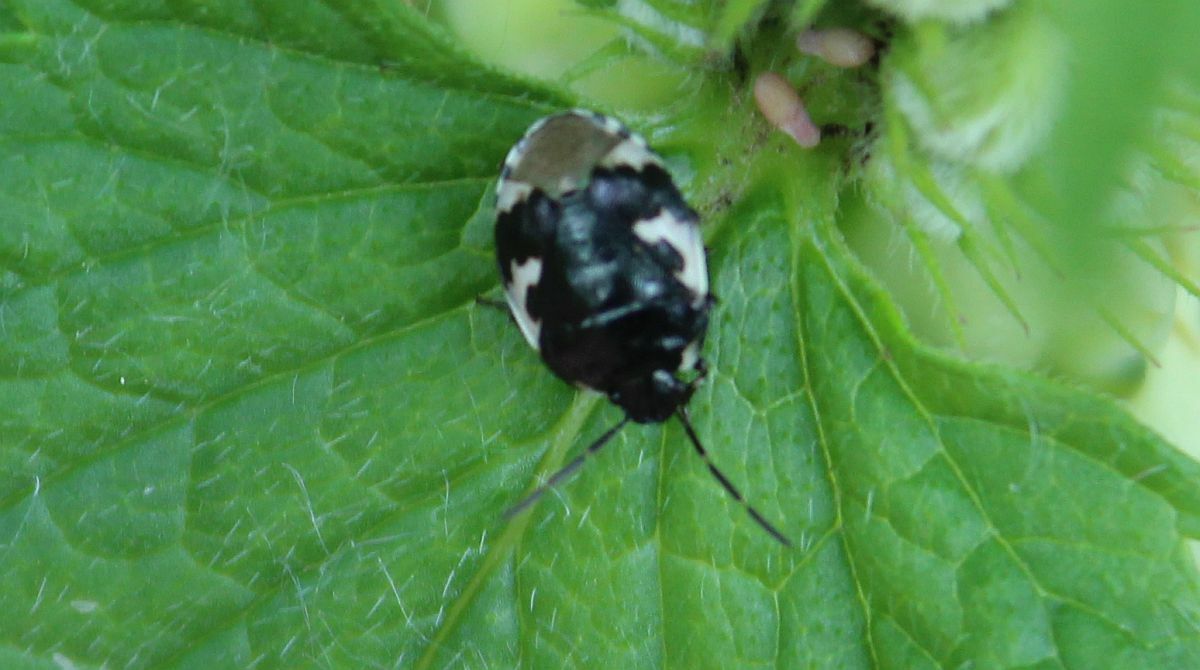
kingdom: Animalia
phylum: Arthropoda
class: Insecta
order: Hemiptera
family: Cydnidae
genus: Tritomegas
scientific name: Tritomegas bicolor
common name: Pied shieldbug
